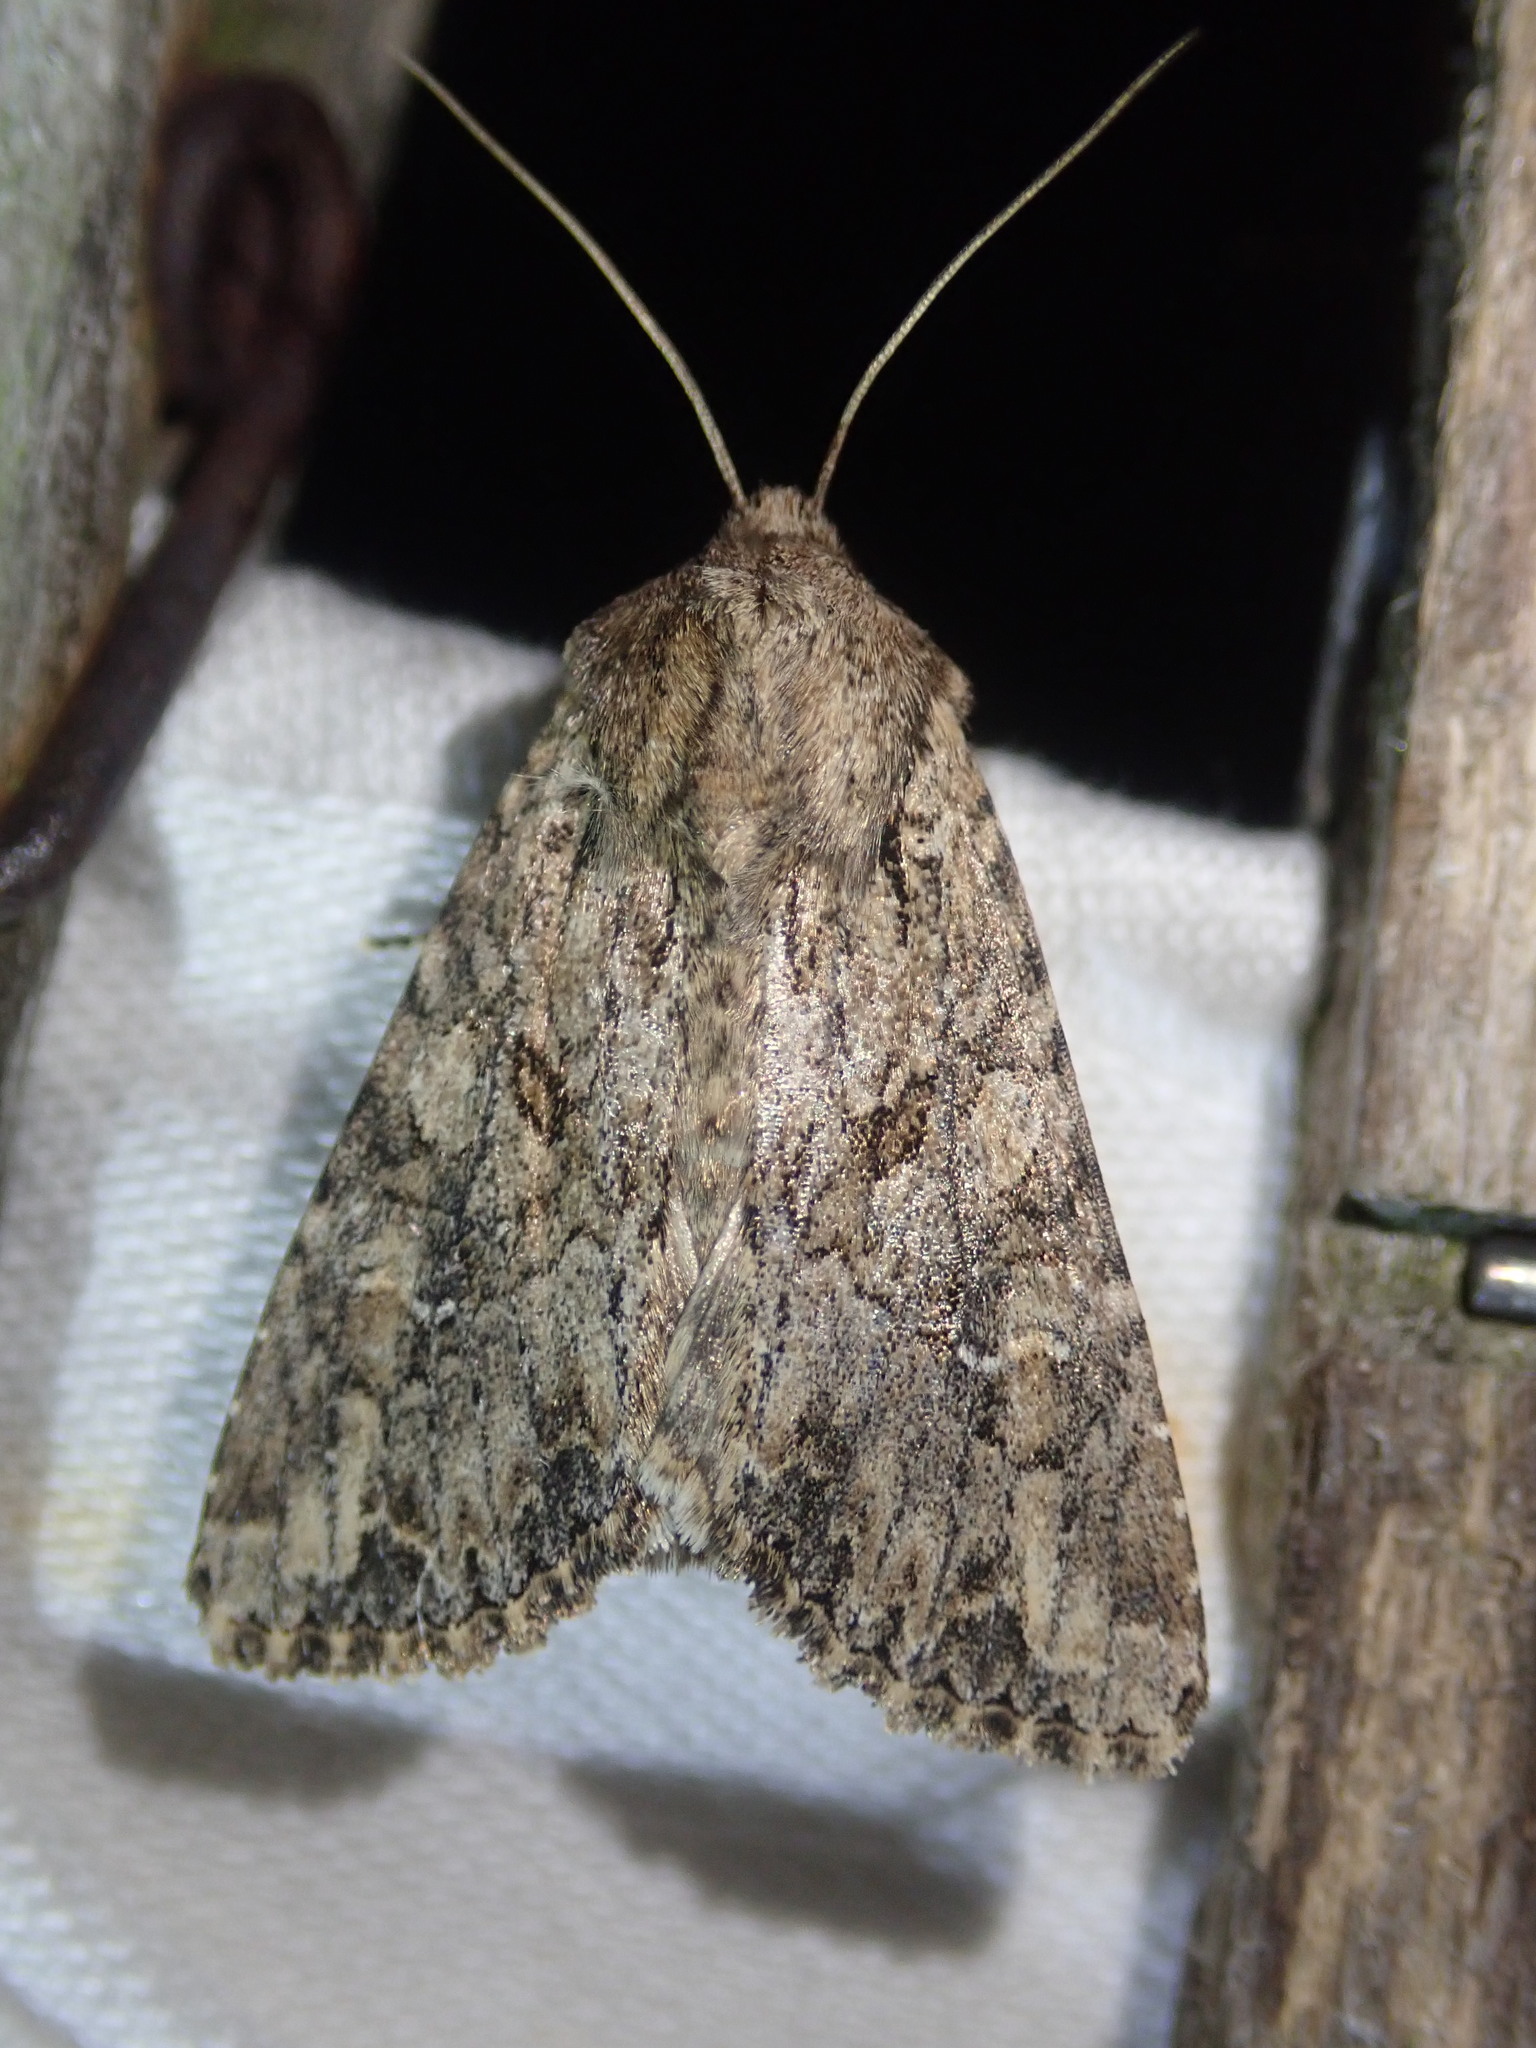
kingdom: Animalia
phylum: Arthropoda
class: Insecta
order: Lepidoptera
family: Noctuidae
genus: Apamea
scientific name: Apamea anceps
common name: Large nutmeg
